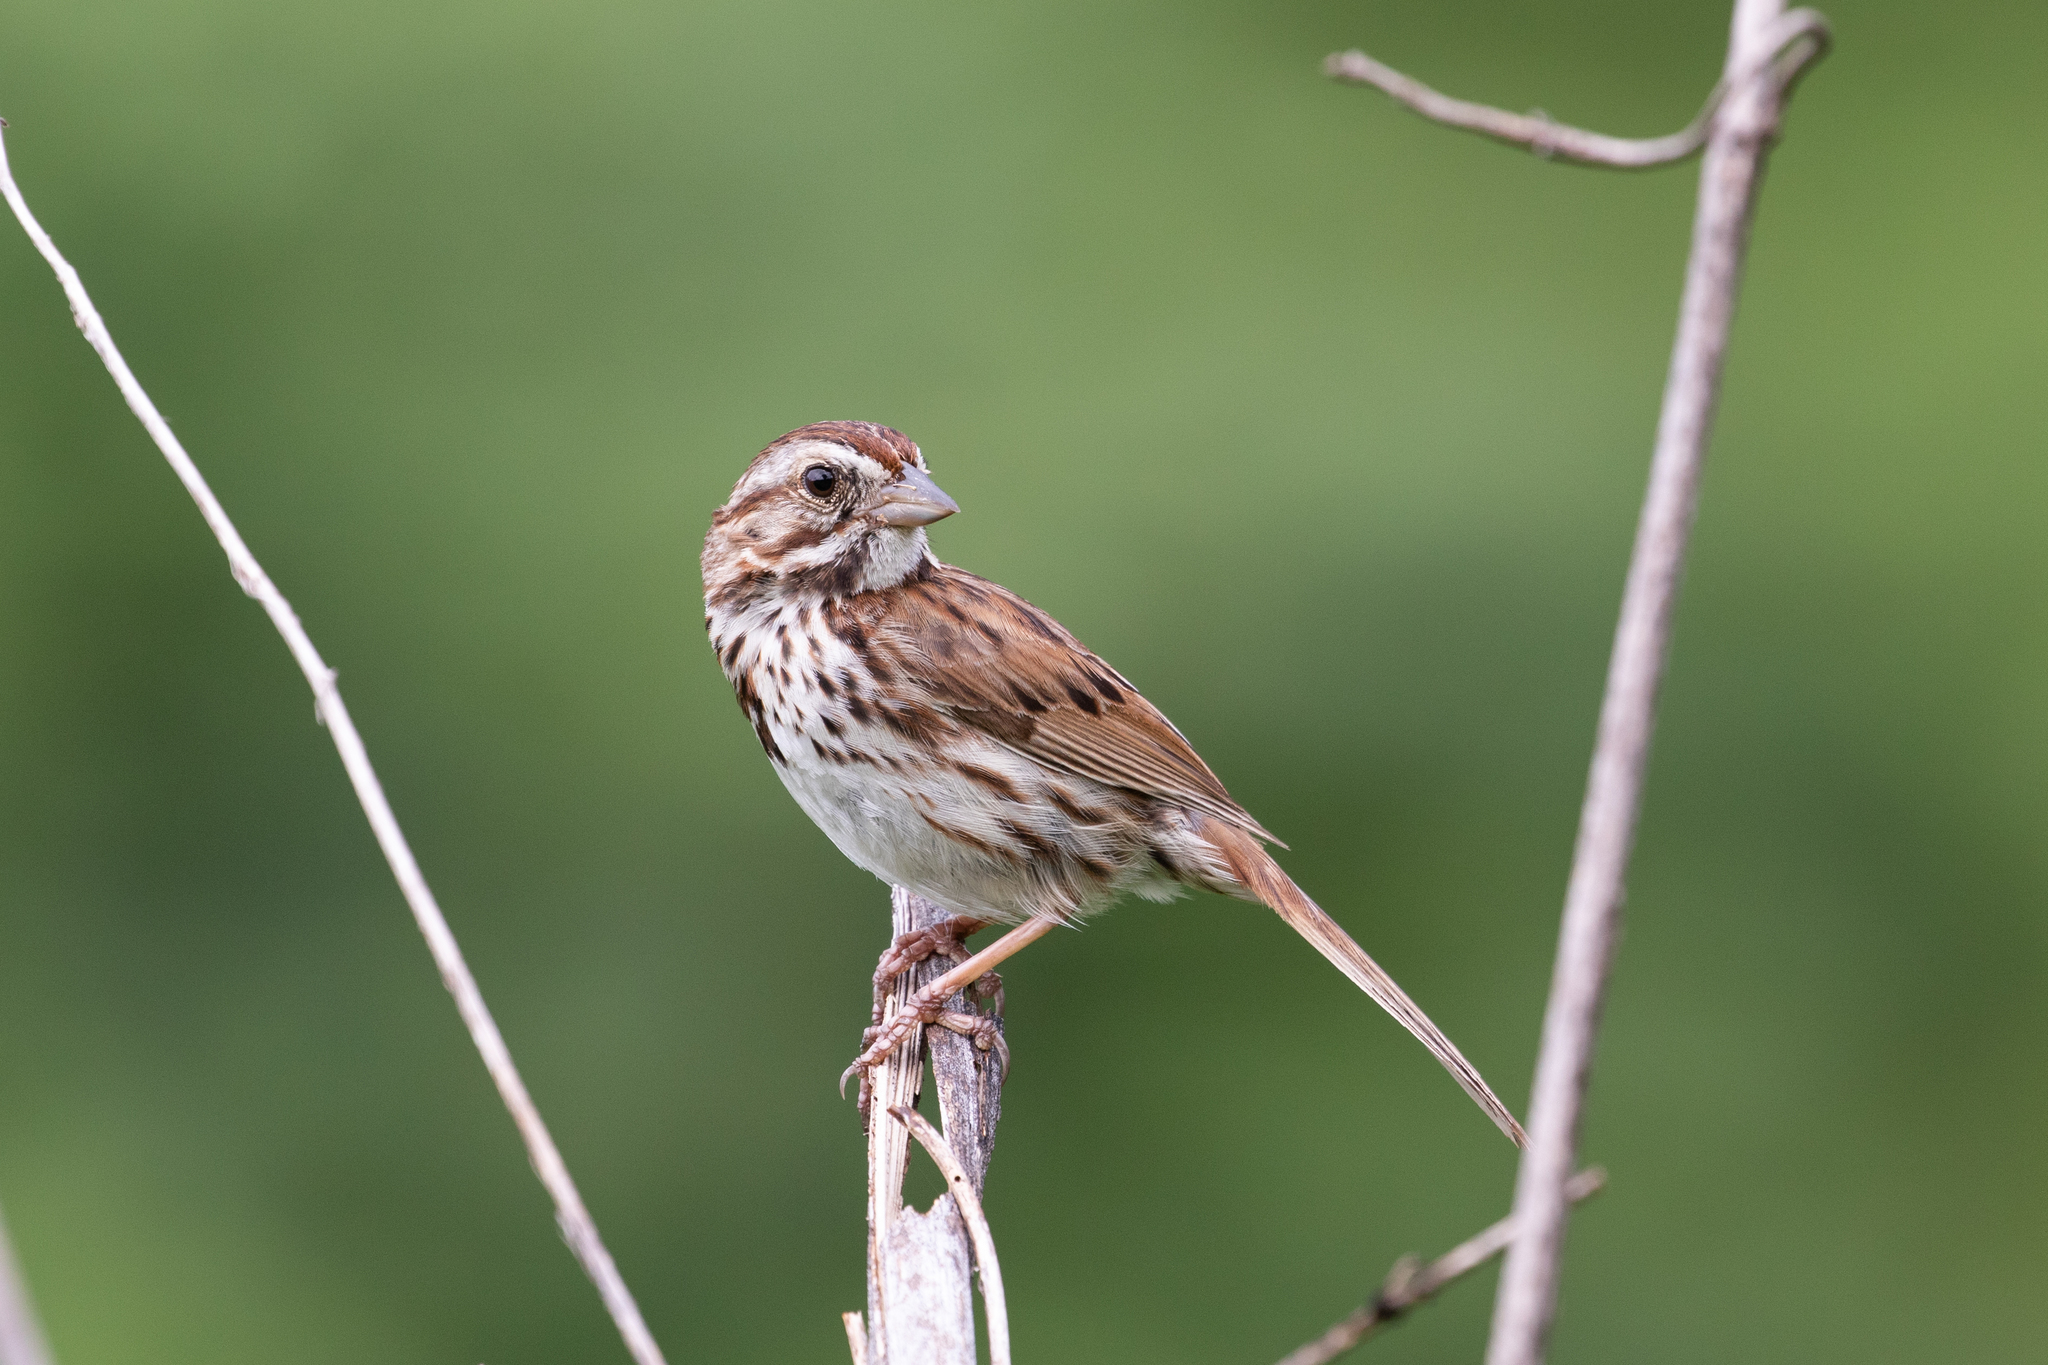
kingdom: Animalia
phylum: Chordata
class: Aves
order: Passeriformes
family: Passerellidae
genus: Melospiza
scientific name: Melospiza melodia
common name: Song sparrow
